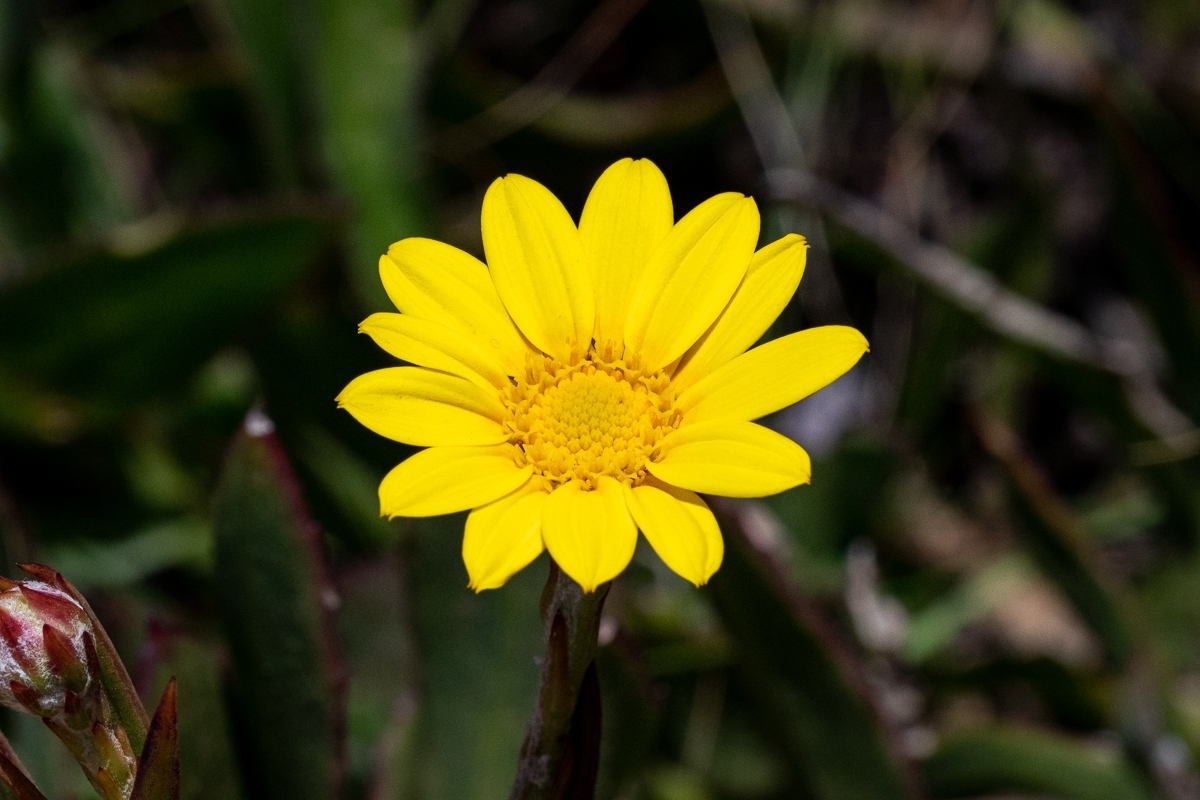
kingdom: Plantae
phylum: Tracheophyta
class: Magnoliopsida
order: Asterales
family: Asteraceae
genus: Osteospermum
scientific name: Osteospermum junceum
